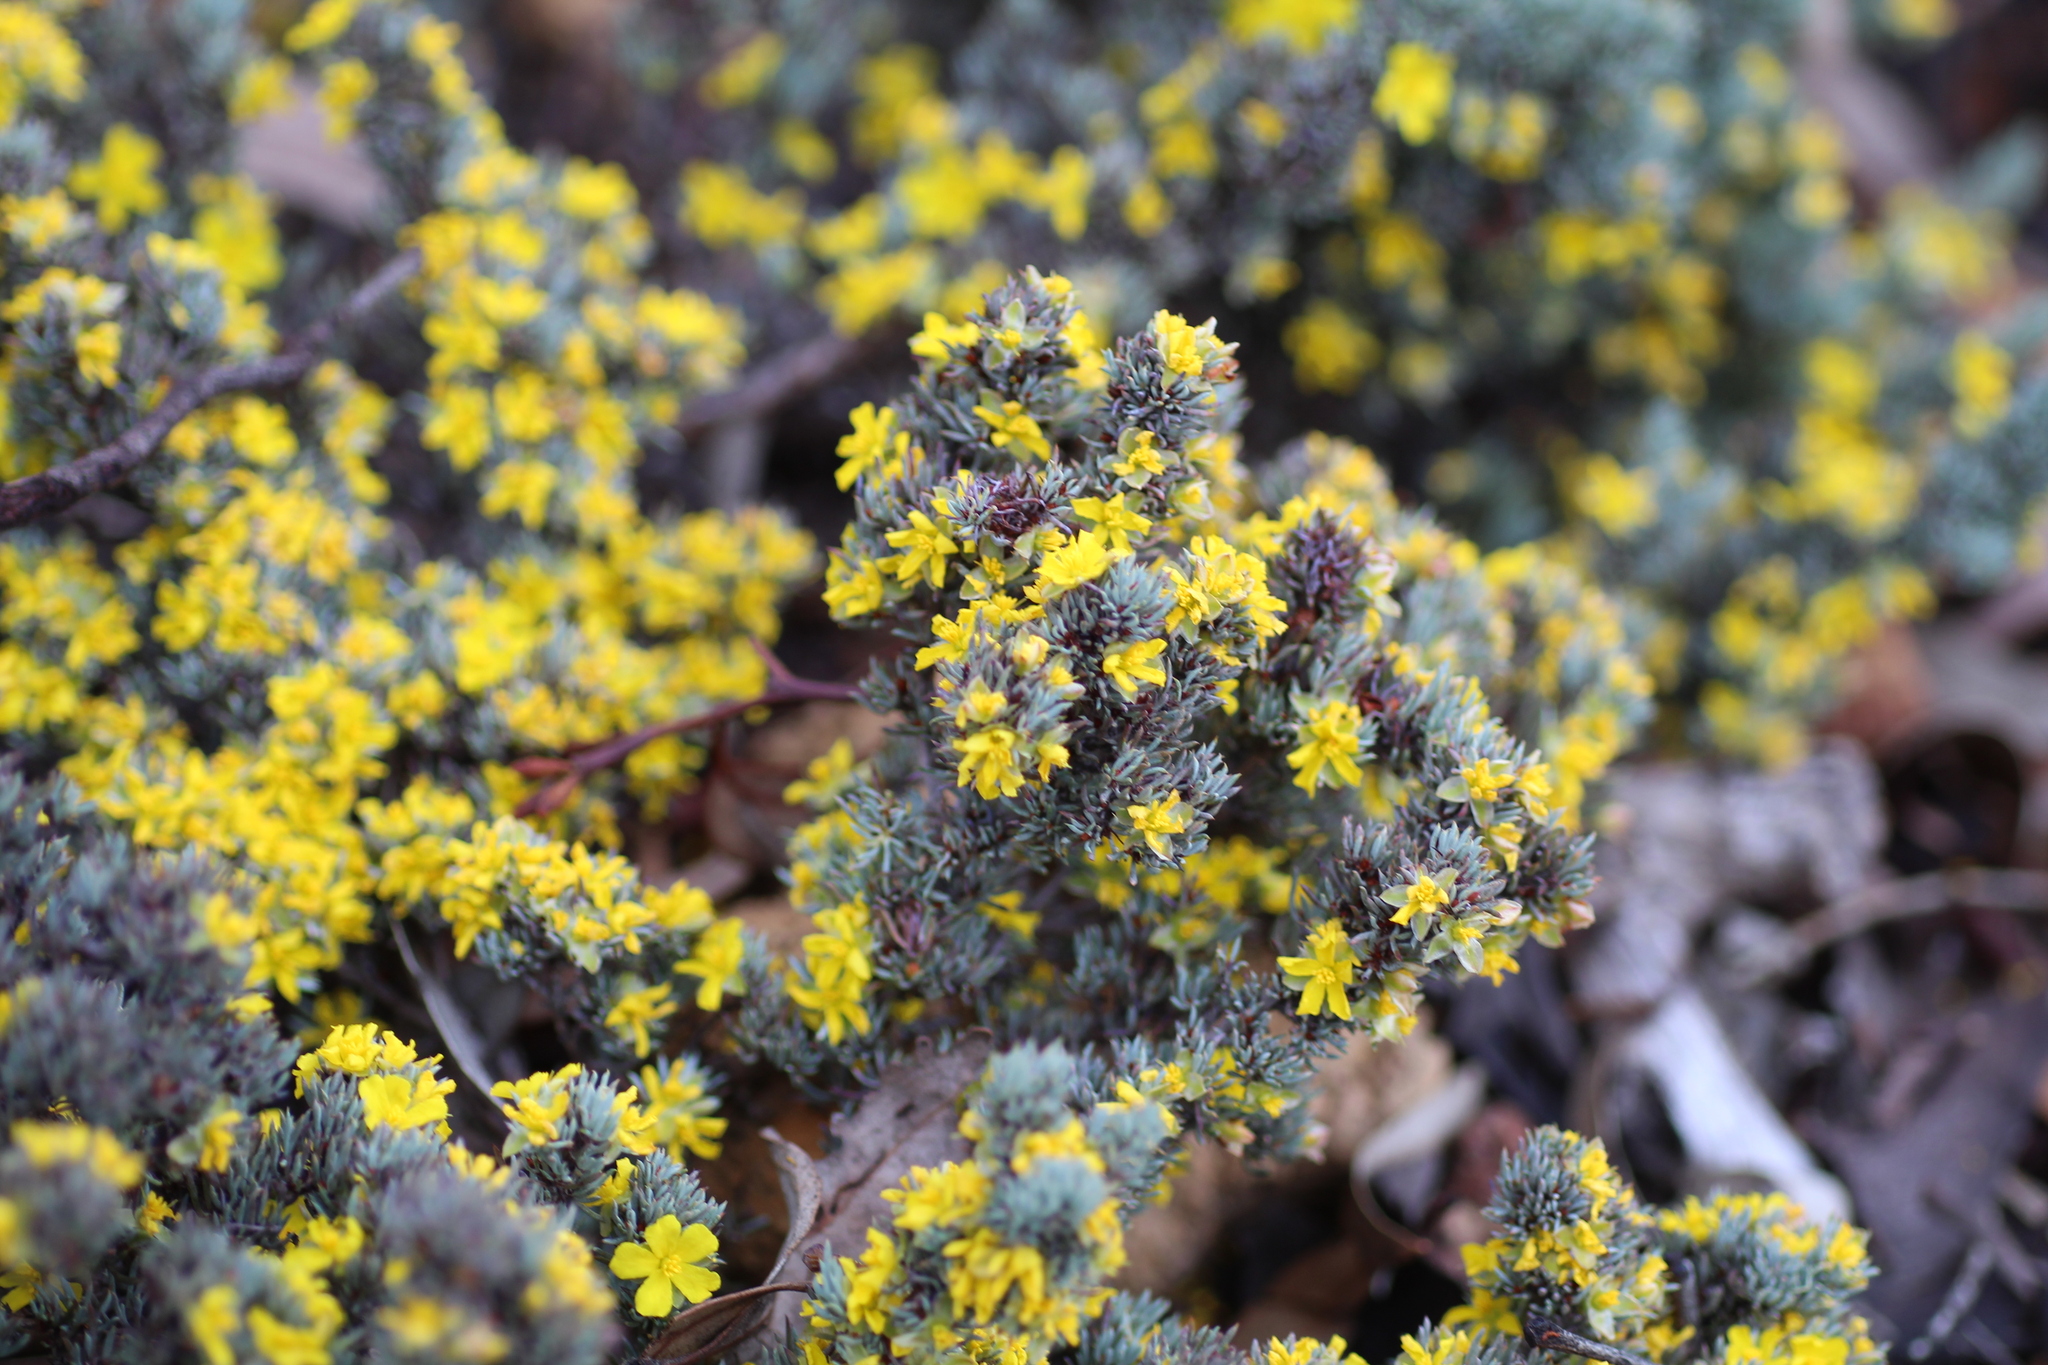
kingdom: Plantae
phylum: Tracheophyta
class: Magnoliopsida
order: Dilleniales
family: Dilleniaceae
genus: Hibbertia
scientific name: Hibbertia hemignosta
